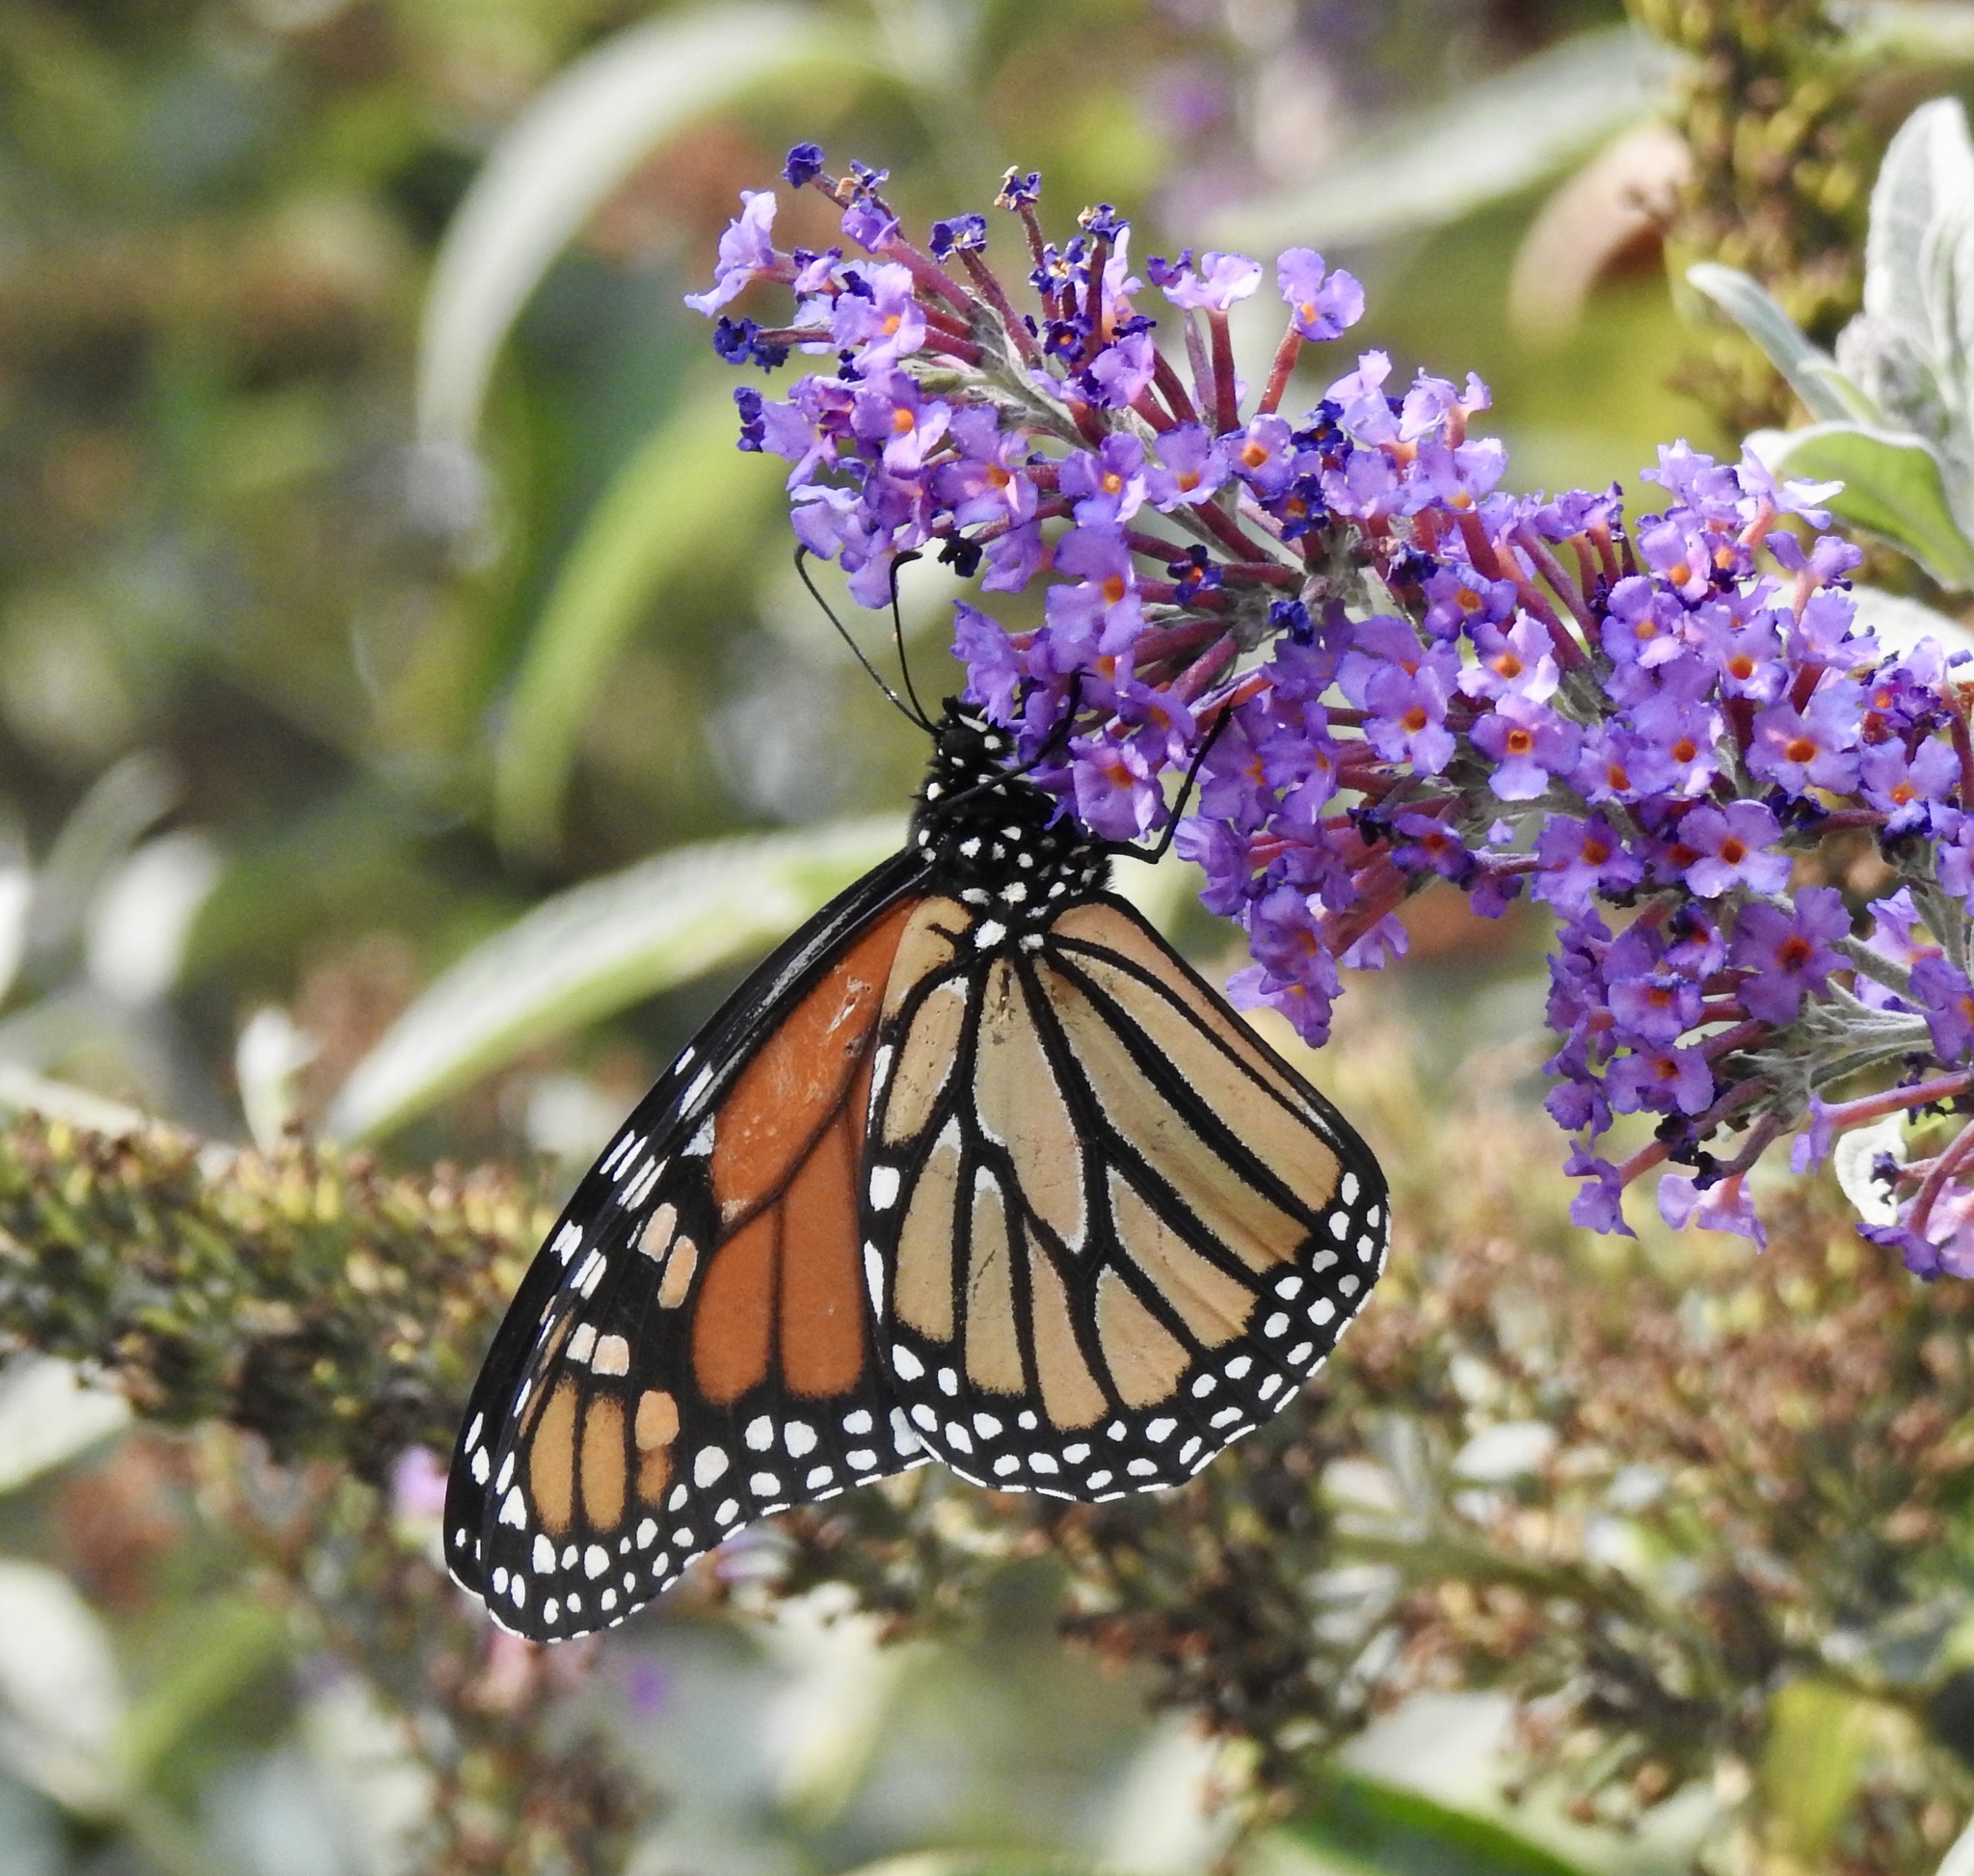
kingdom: Animalia
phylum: Arthropoda
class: Insecta
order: Lepidoptera
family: Nymphalidae
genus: Danaus
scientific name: Danaus plexippus
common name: Monarch
